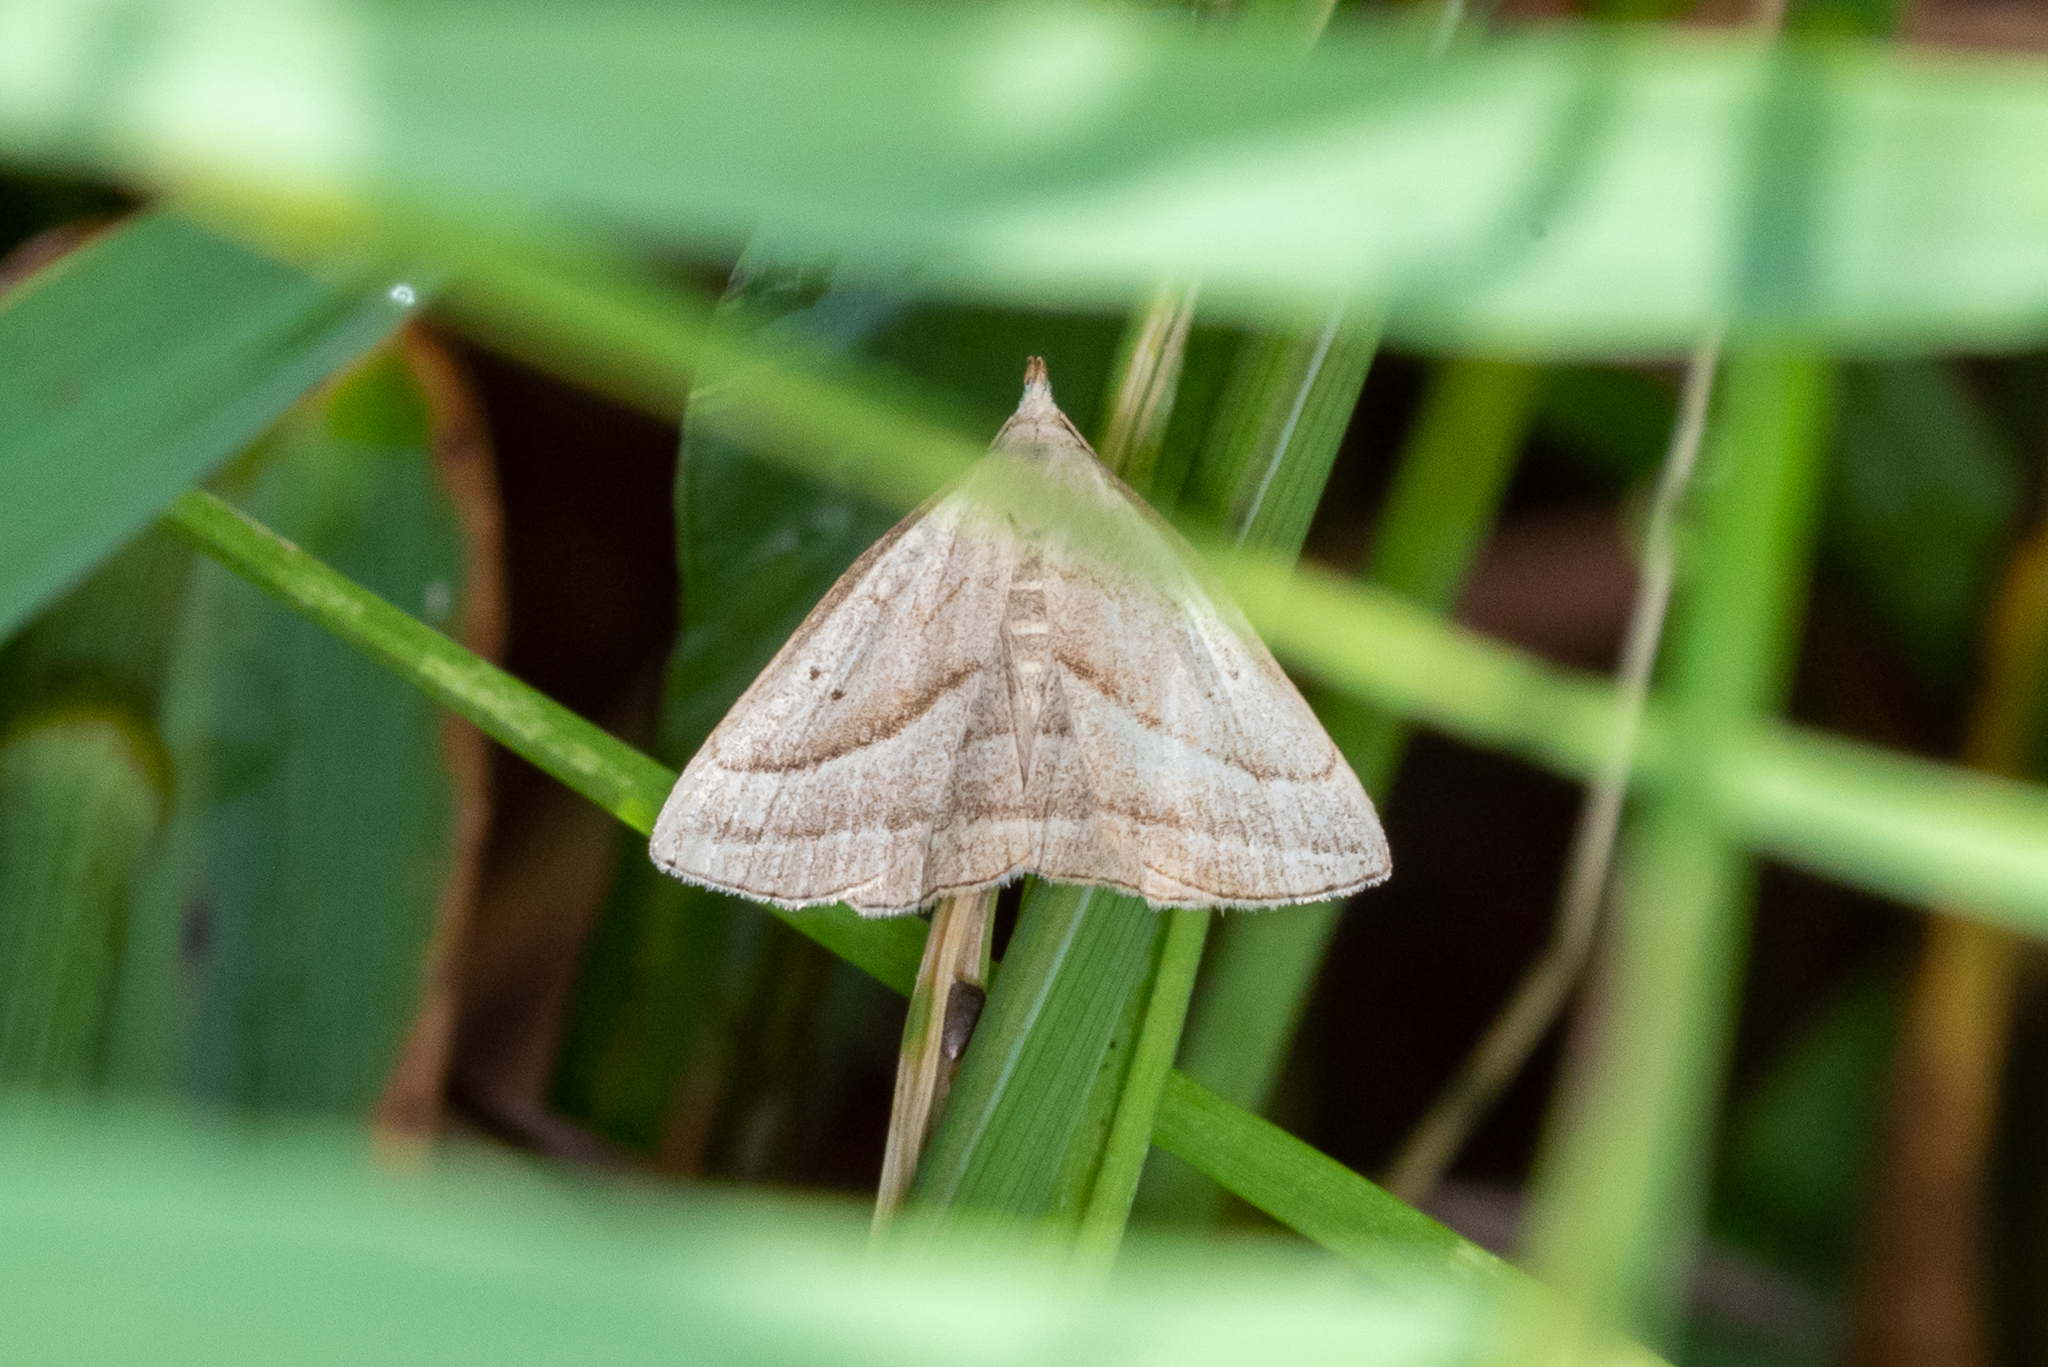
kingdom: Animalia
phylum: Arthropoda
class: Insecta
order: Lepidoptera
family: Erebidae
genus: Macrochilo
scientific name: Macrochilo absorptalis
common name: Slant-lined owlet
